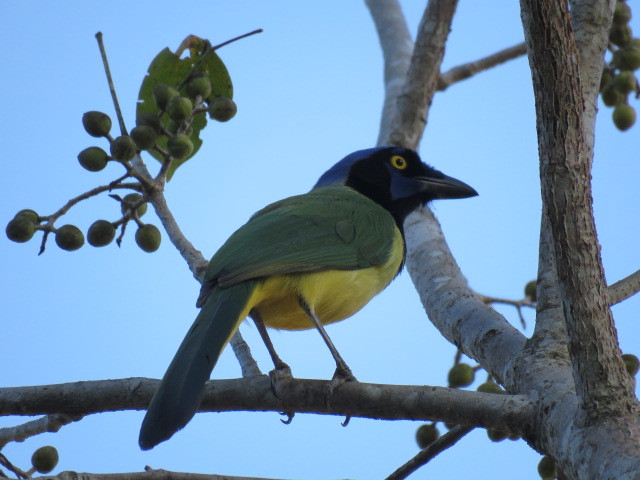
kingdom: Animalia
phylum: Chordata
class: Aves
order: Passeriformes
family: Corvidae
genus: Cyanocorax
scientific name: Cyanocorax yncas
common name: Green jay
